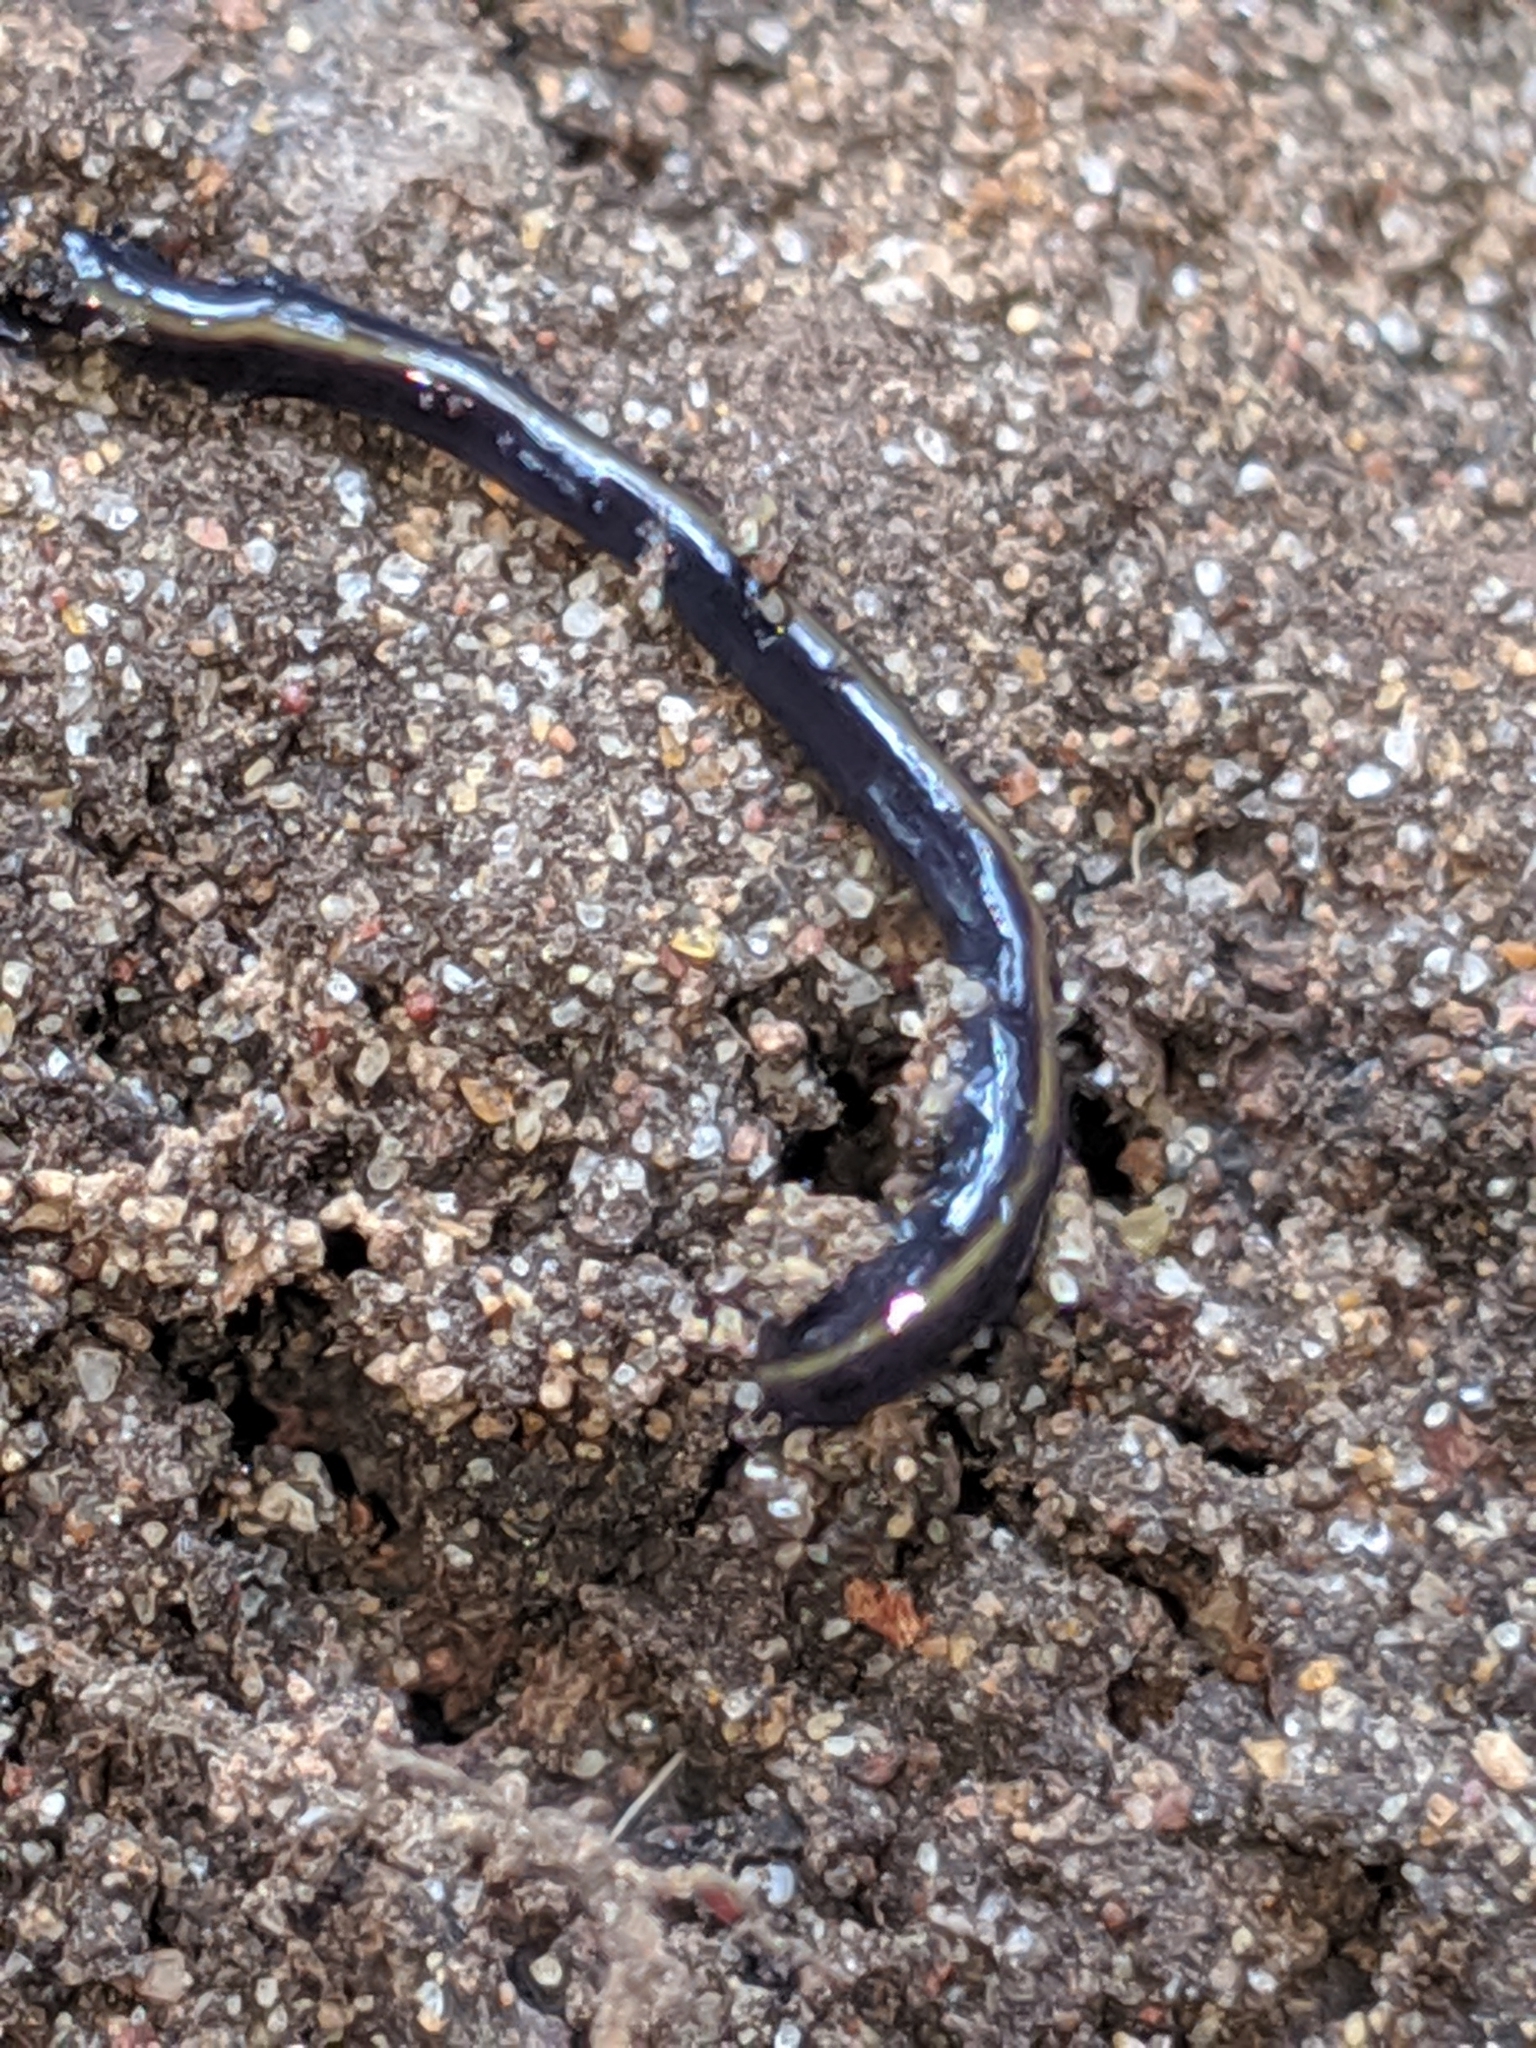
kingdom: Animalia
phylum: Platyhelminthes
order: Tricladida
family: Geoplanidae
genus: Parakontikia
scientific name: Parakontikia ventrolineata
